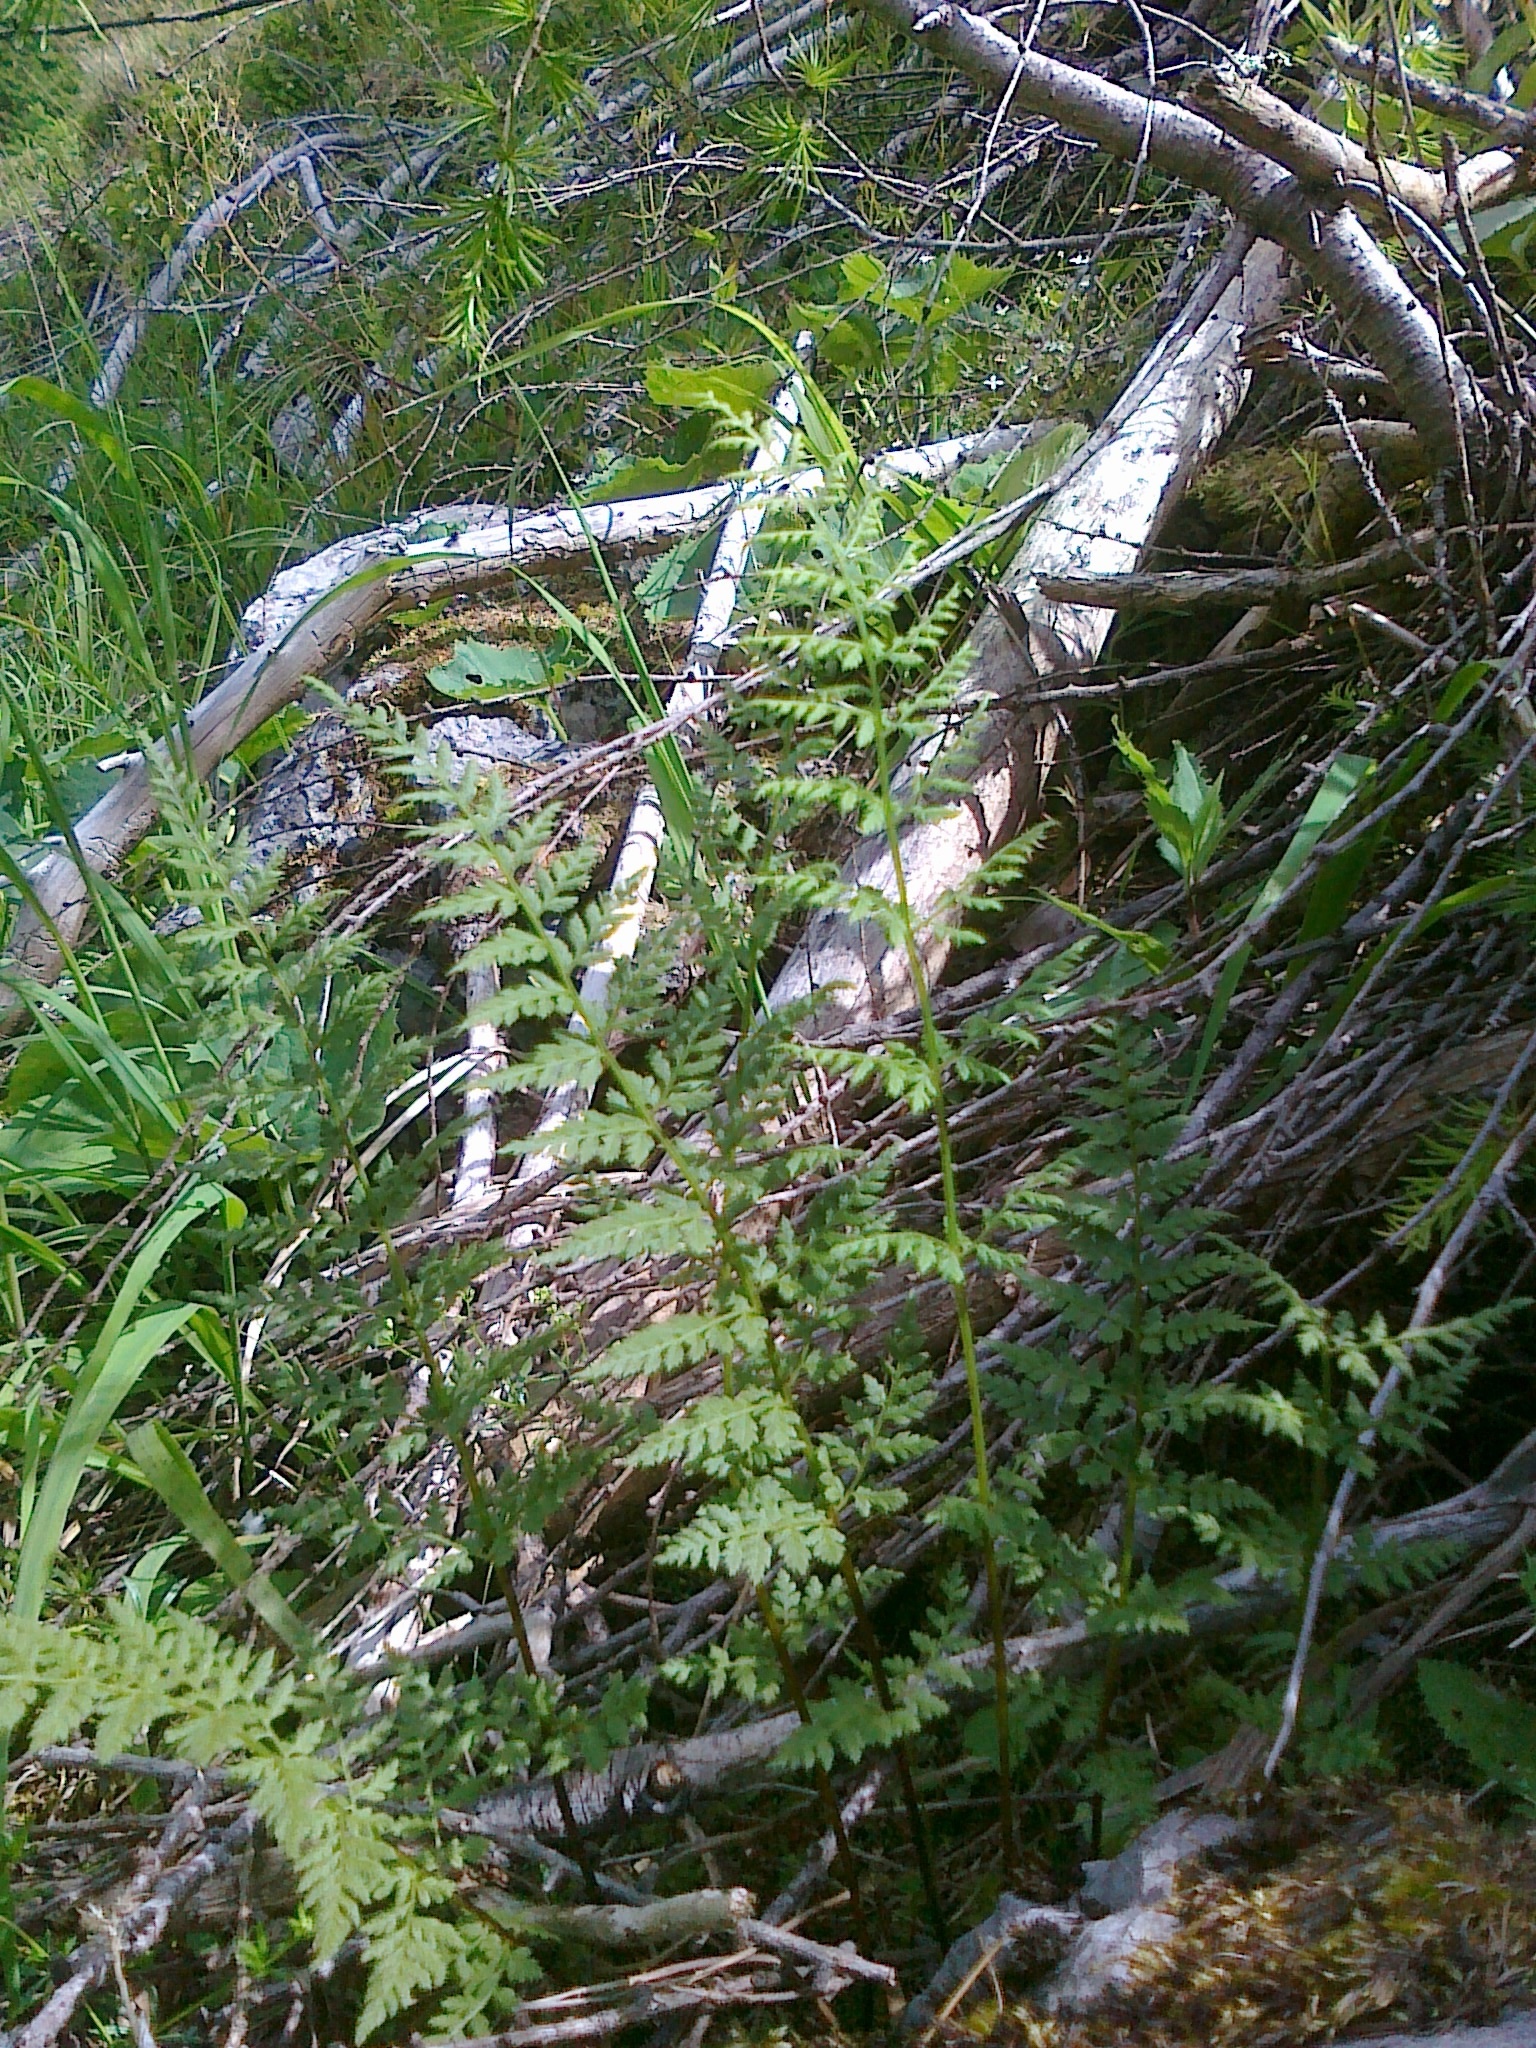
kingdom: Plantae
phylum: Tracheophyta
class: Polypodiopsida
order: Polypodiales
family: Cystopteridaceae
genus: Cystopteris
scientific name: Cystopteris fragilis
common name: Brittle bladder fern
